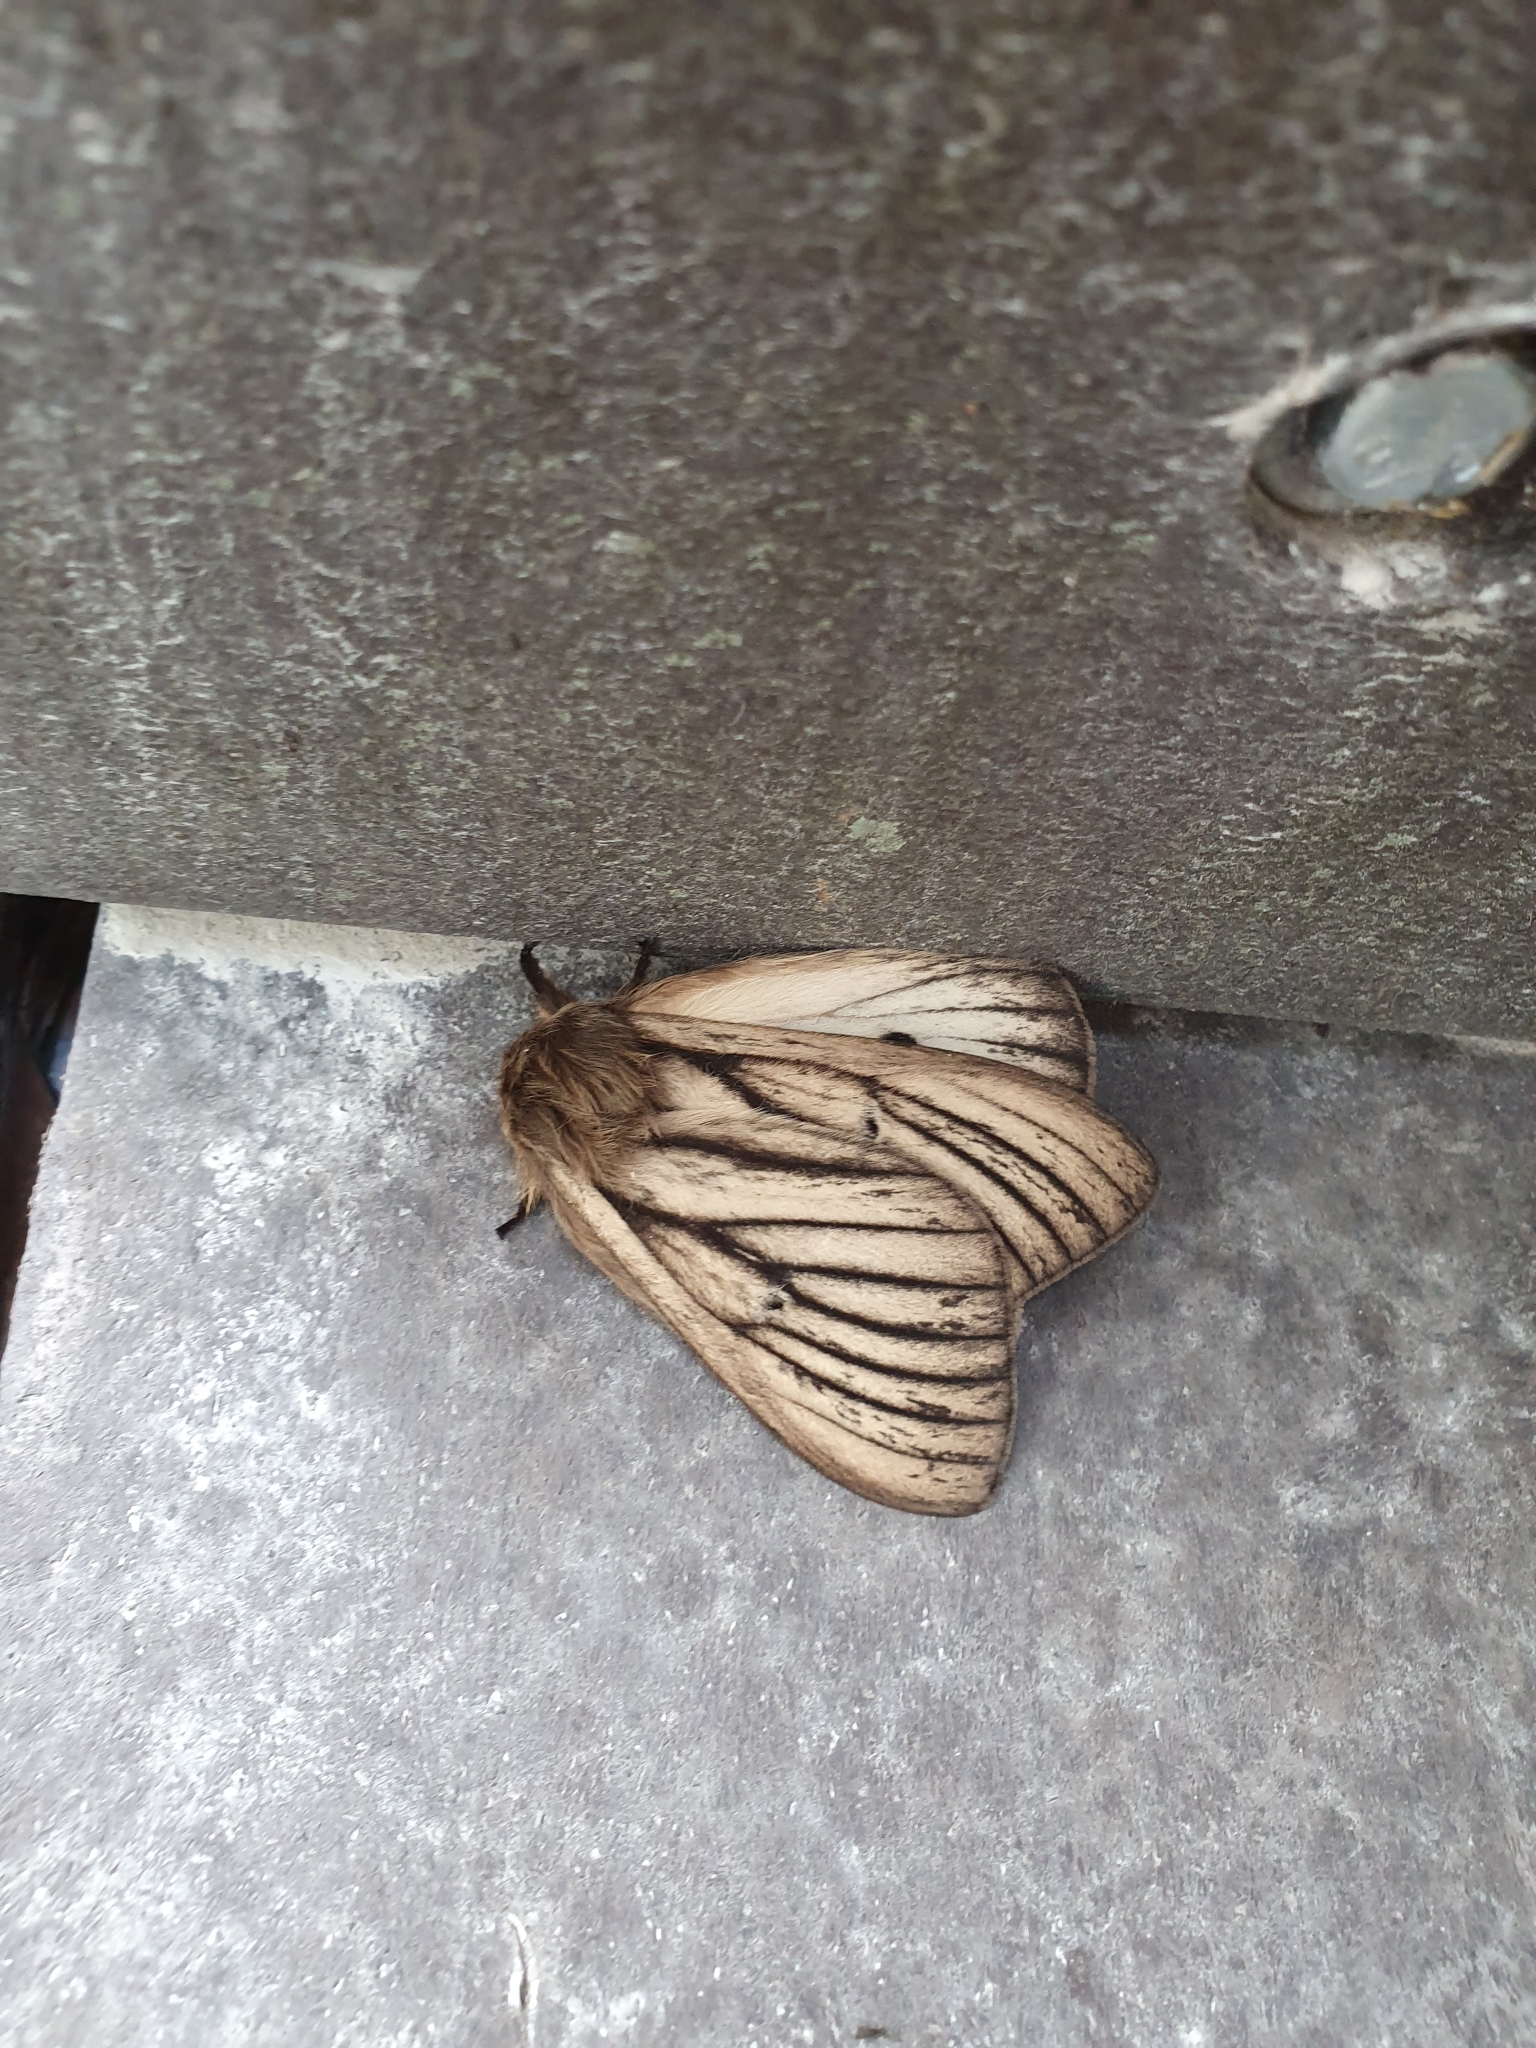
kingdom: Animalia
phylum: Arthropoda
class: Insecta
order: Lepidoptera
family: Saturniidae
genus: Eudyaria
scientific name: Eudyaria zeta
